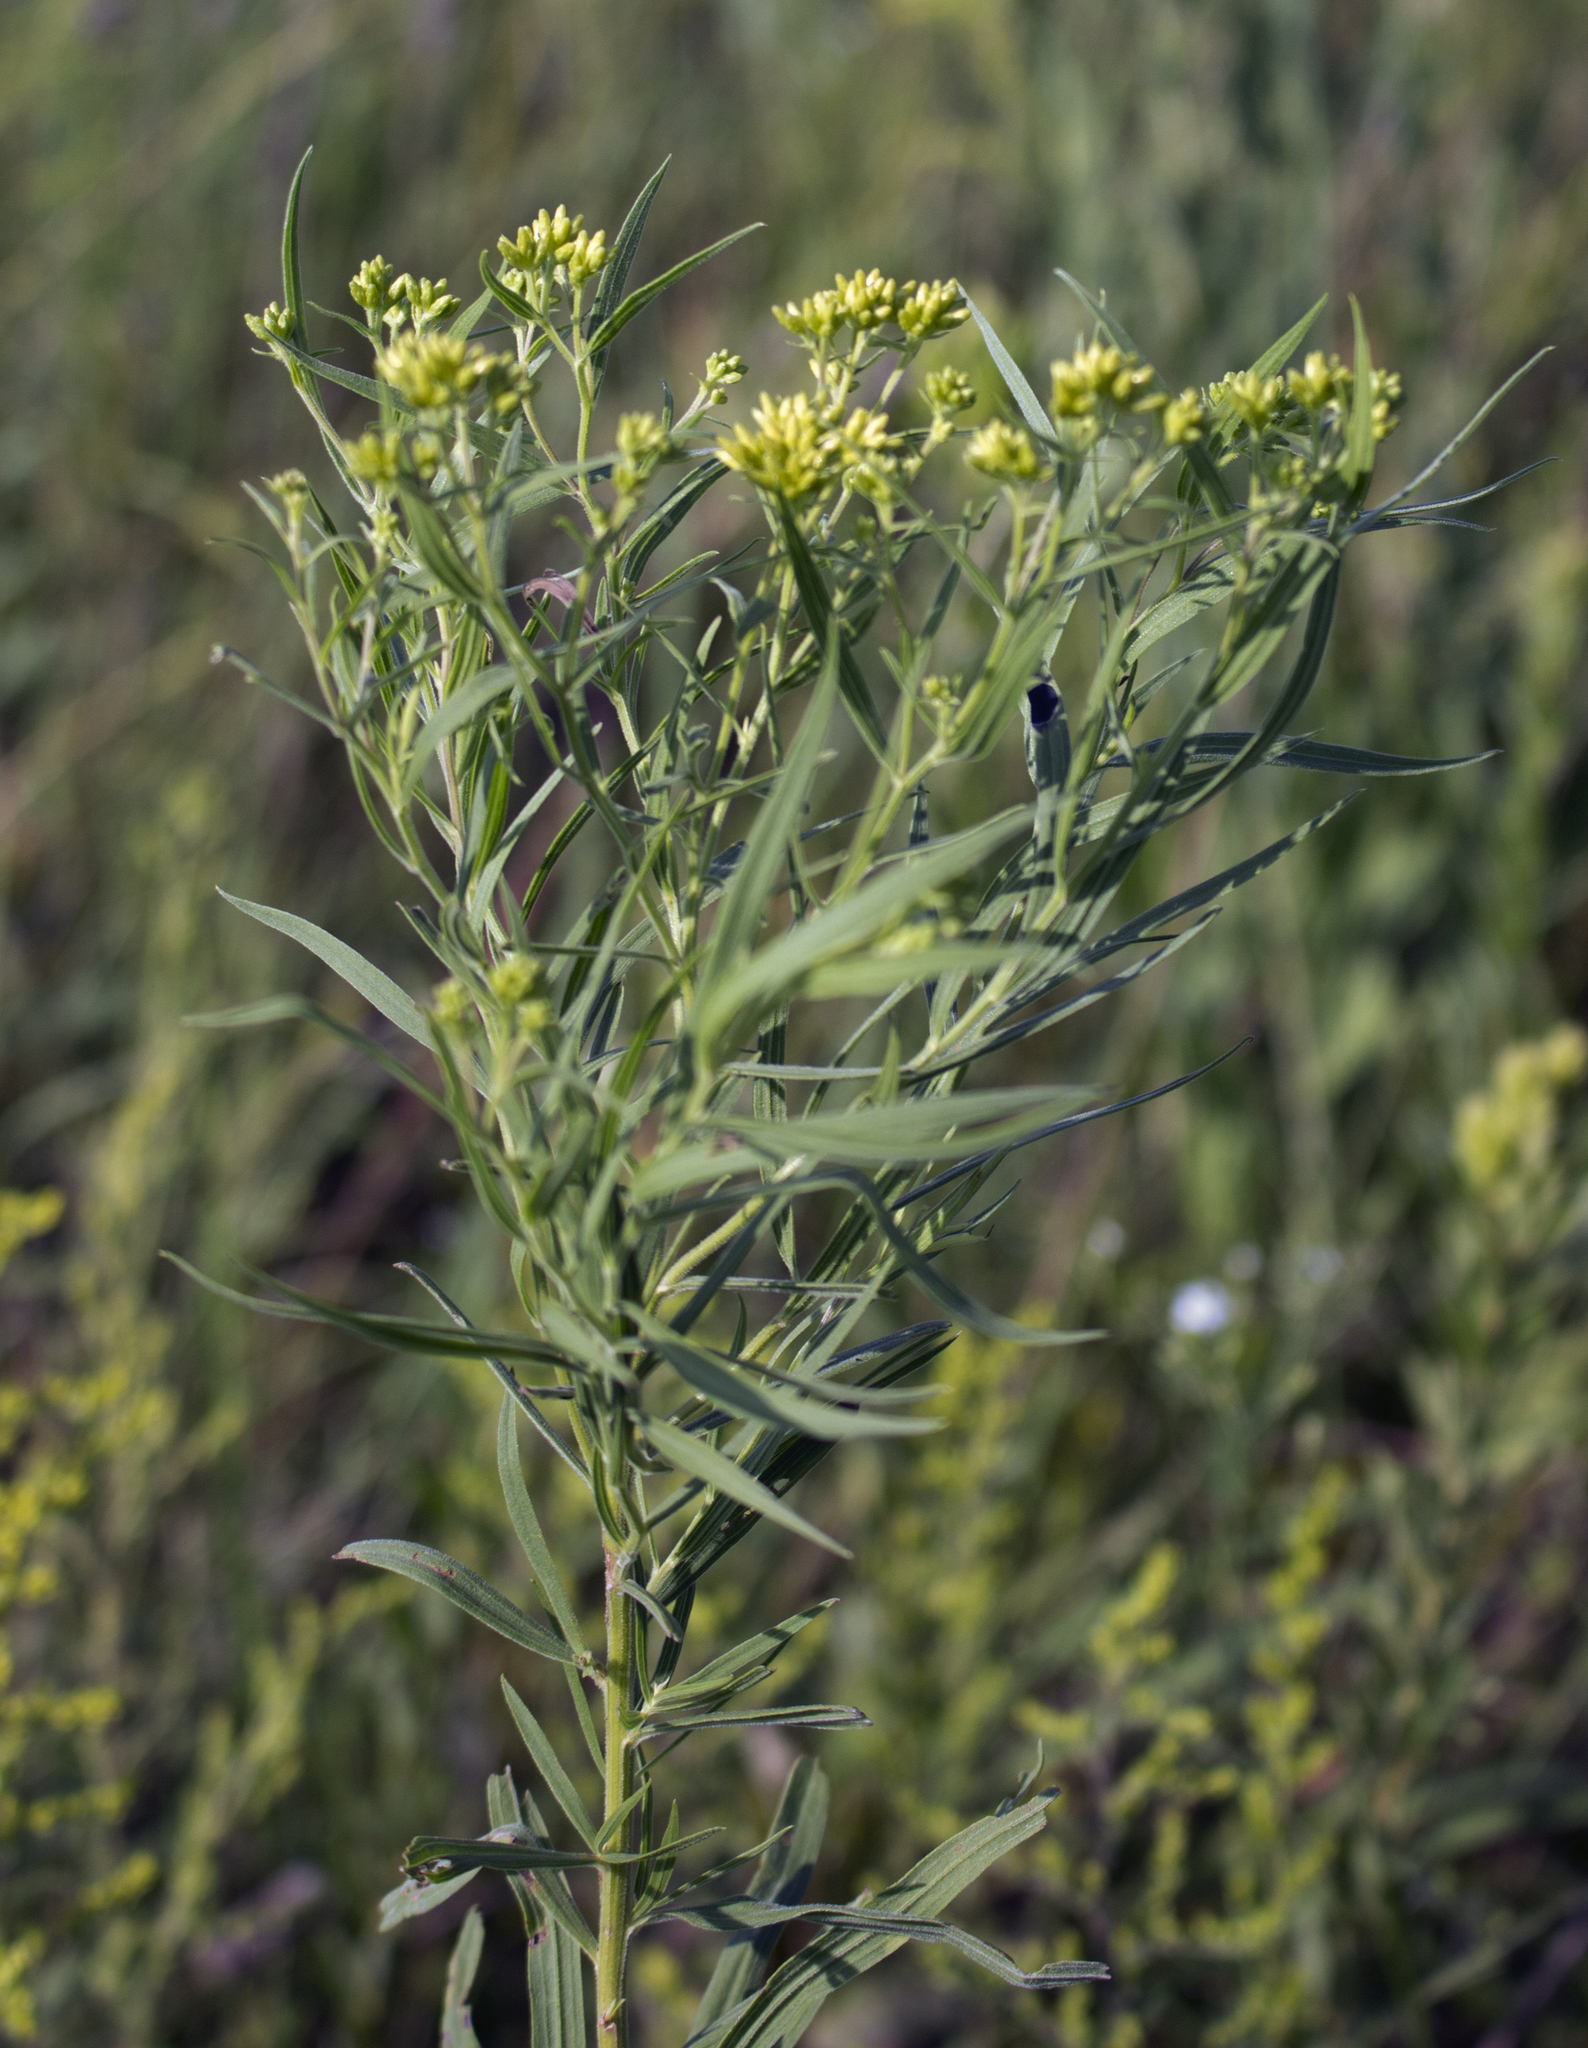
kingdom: Plantae
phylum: Tracheophyta
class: Magnoliopsida
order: Asterales
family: Asteraceae
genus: Euthamia
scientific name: Euthamia graminifolia
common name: Common goldentop
